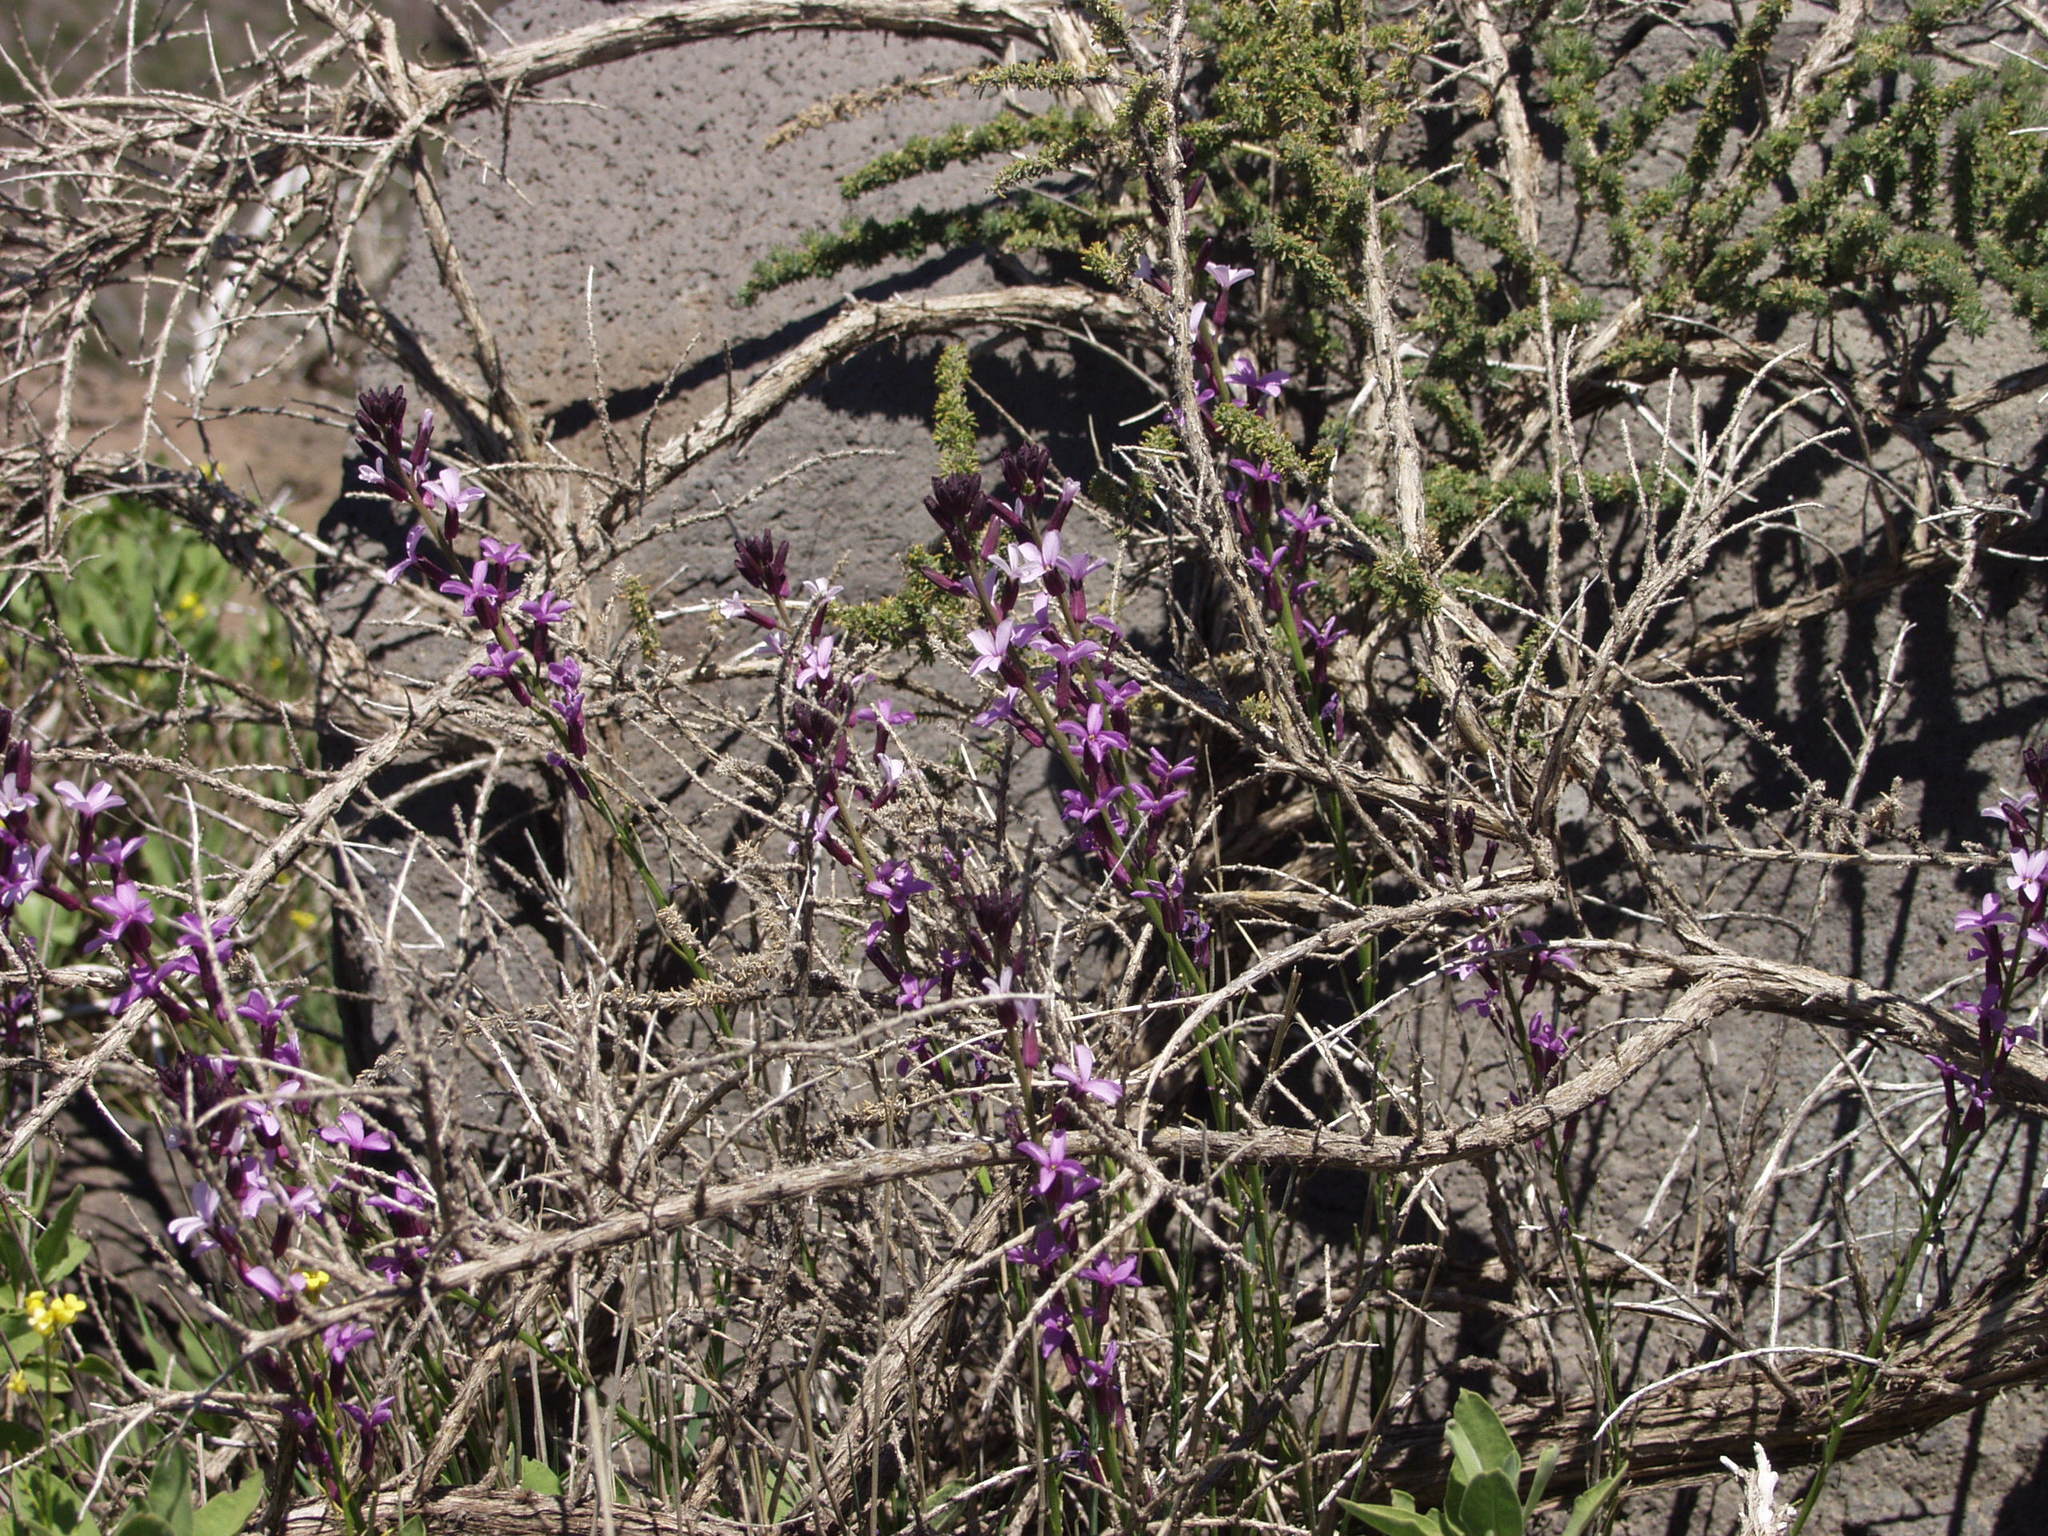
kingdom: Plantae
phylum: Tracheophyta
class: Magnoliopsida
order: Brassicales
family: Brassicaceae
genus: Erysimum
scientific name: Erysimum scoparium
